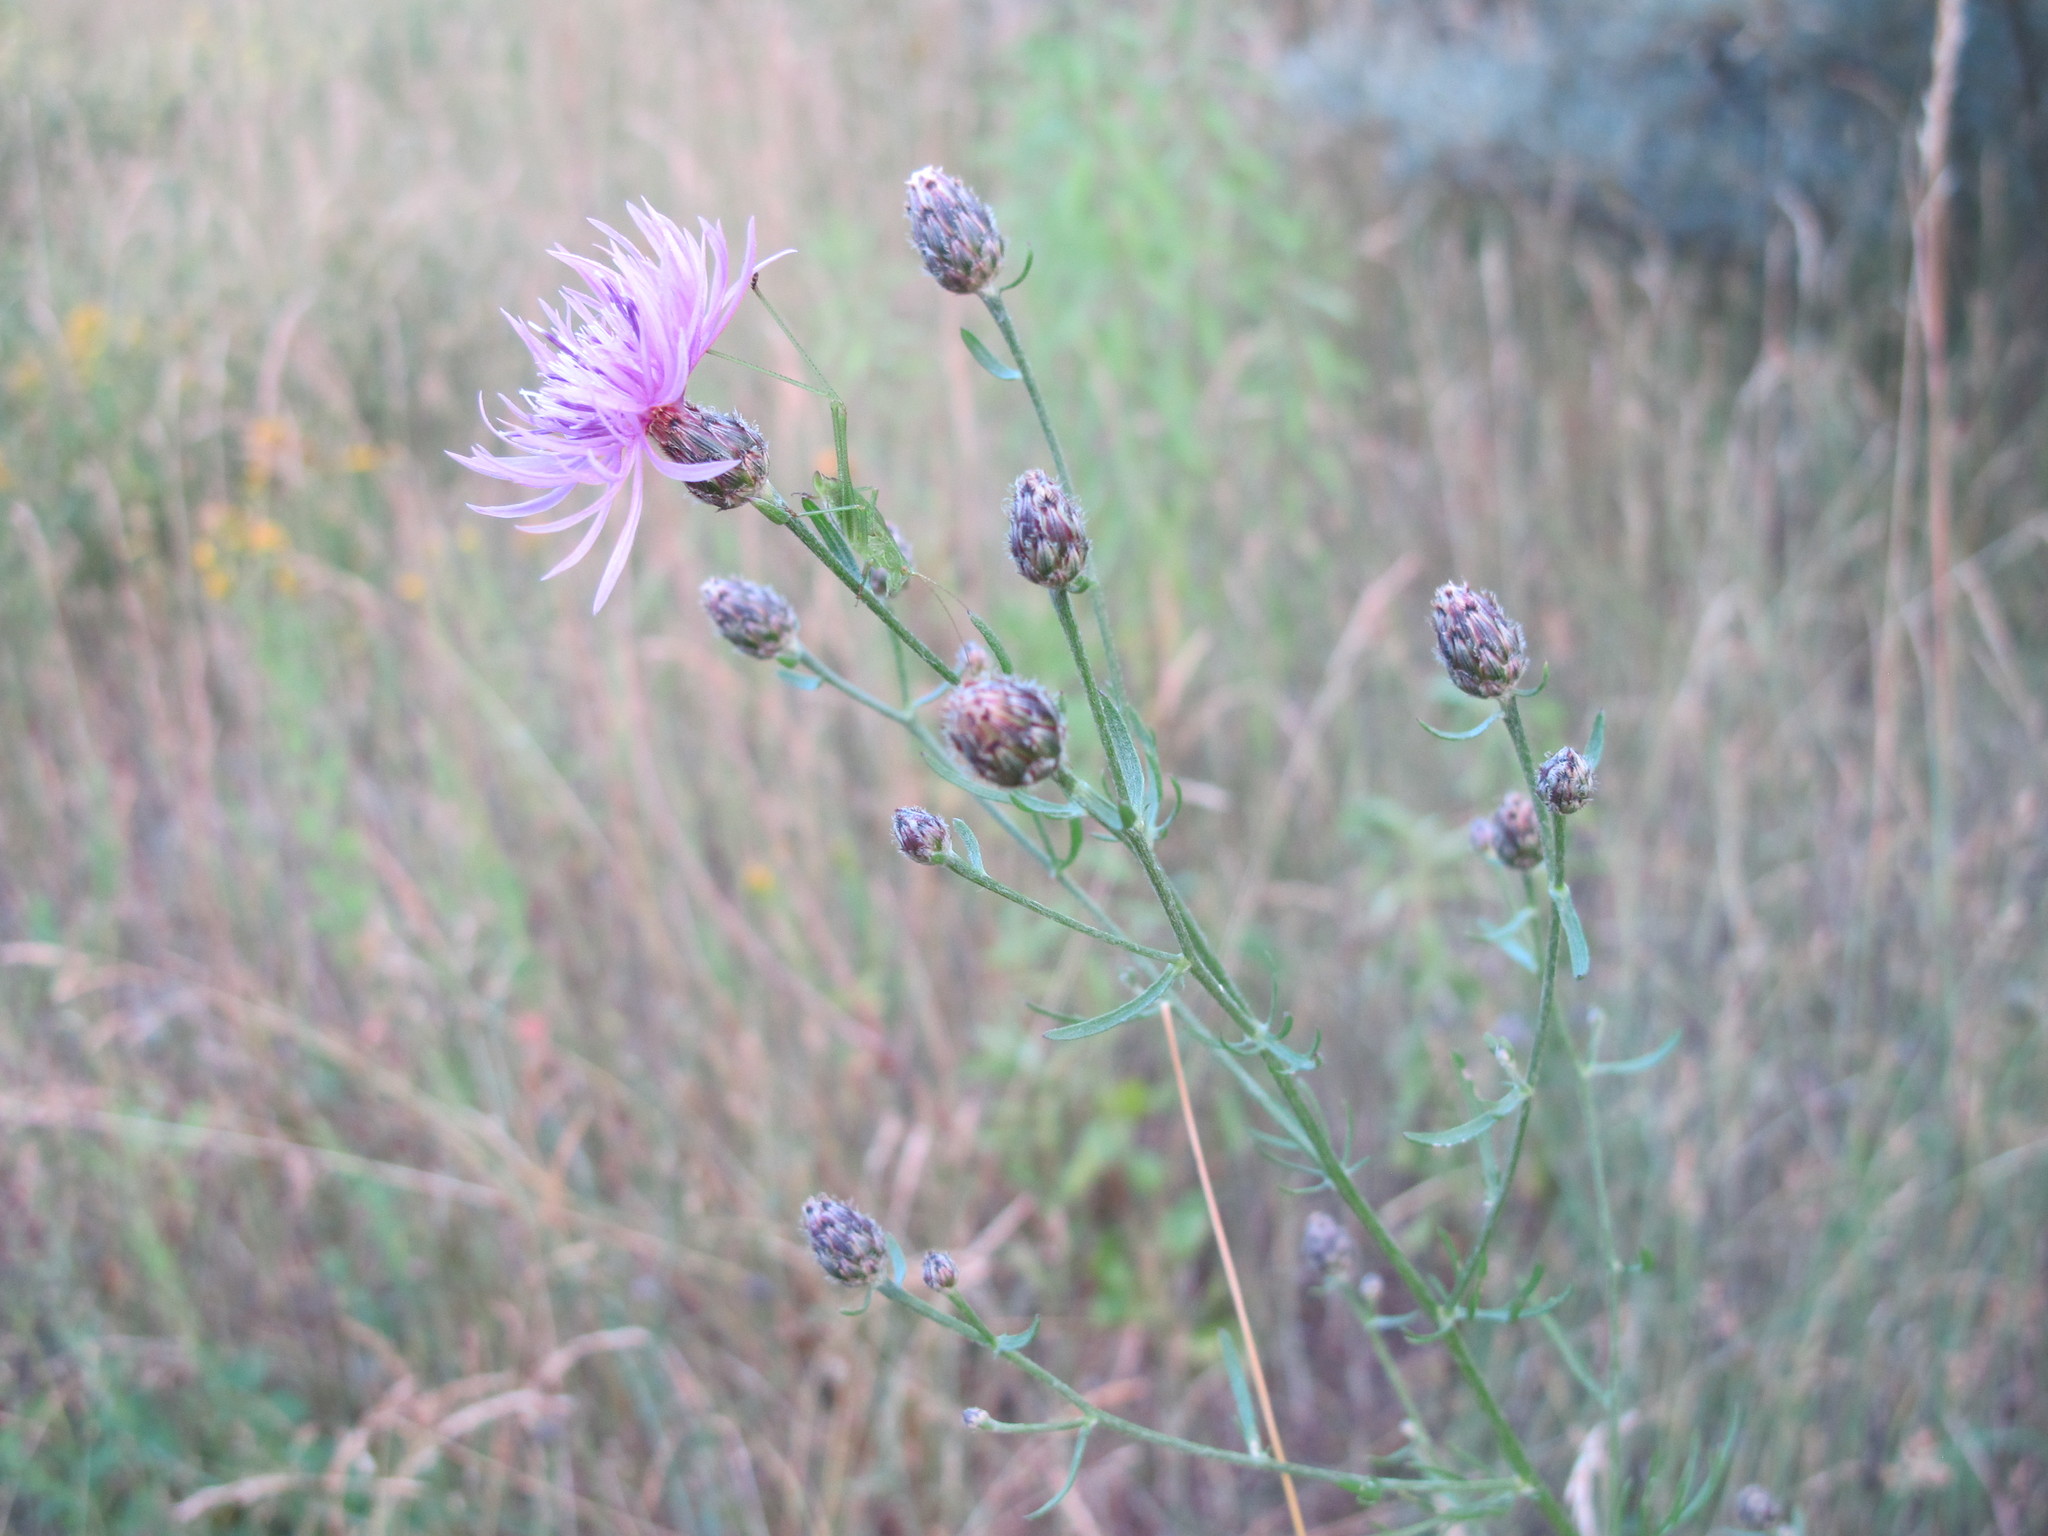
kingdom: Plantae
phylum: Tracheophyta
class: Magnoliopsida
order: Asterales
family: Asteraceae
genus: Centaurea
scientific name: Centaurea australis
